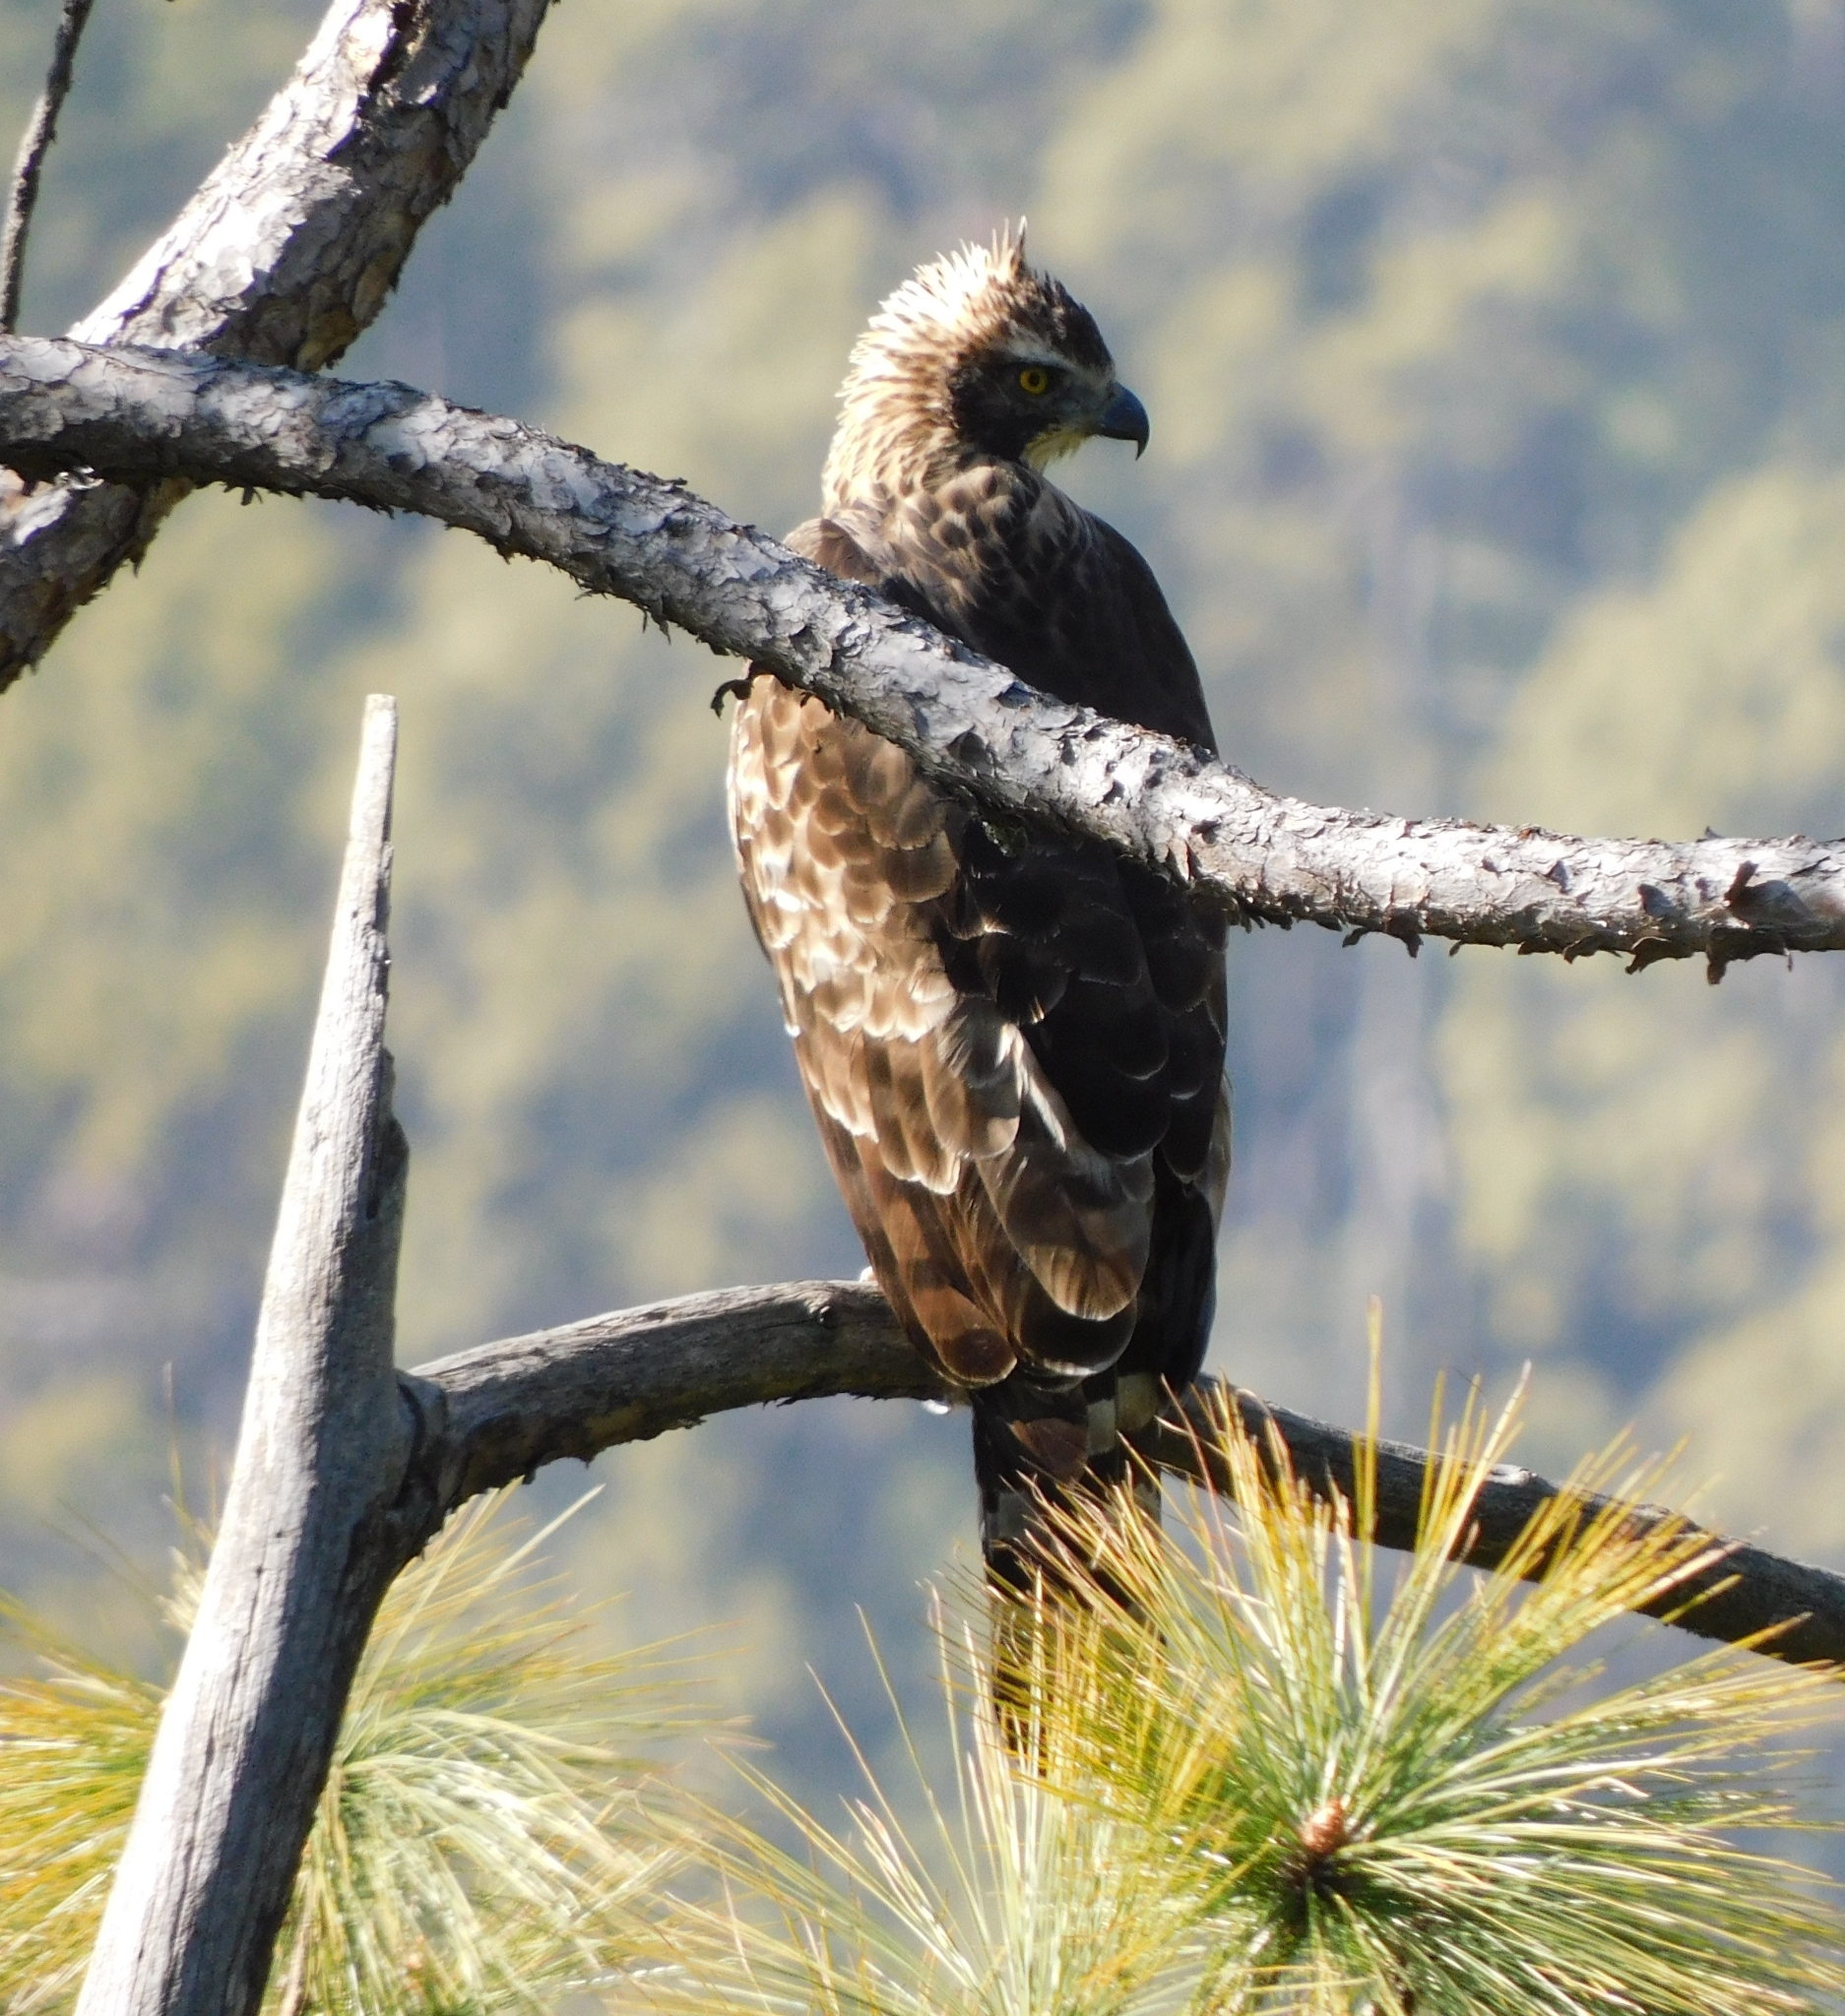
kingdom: Animalia
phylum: Chordata
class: Aves
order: Accipitriformes
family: Accipitridae
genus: Nisaetus
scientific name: Nisaetus nipalensis
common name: Mountain hawk-eagle
